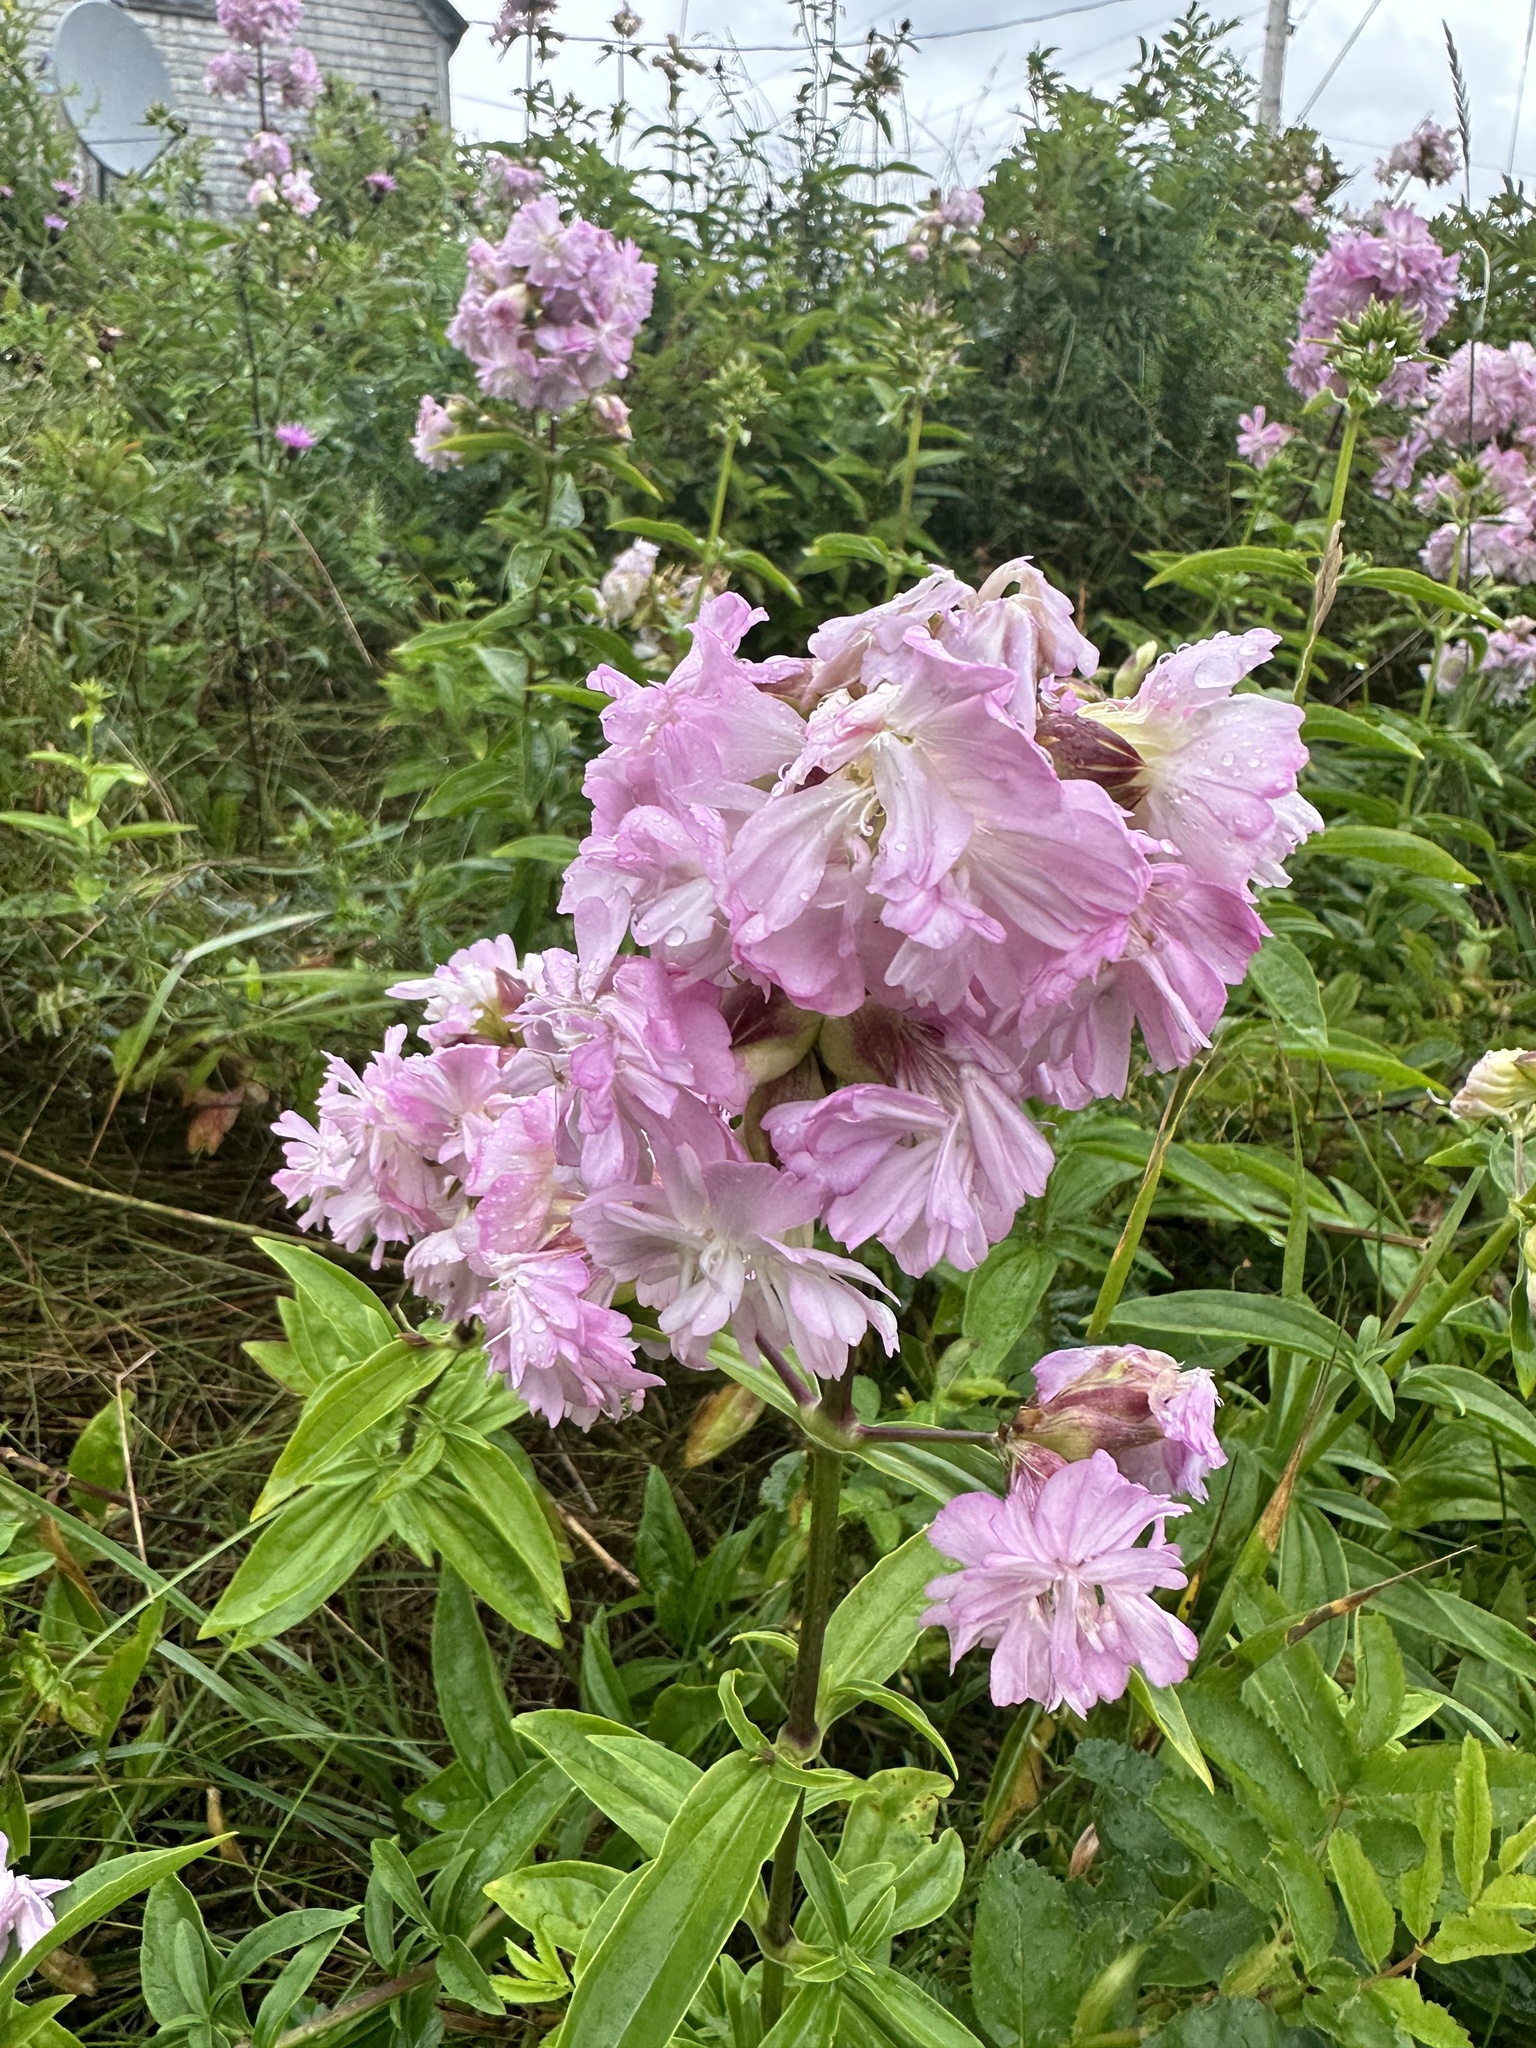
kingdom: Plantae
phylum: Tracheophyta
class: Magnoliopsida
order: Caryophyllales
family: Caryophyllaceae
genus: Saponaria
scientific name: Saponaria officinalis
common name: Soapwort
